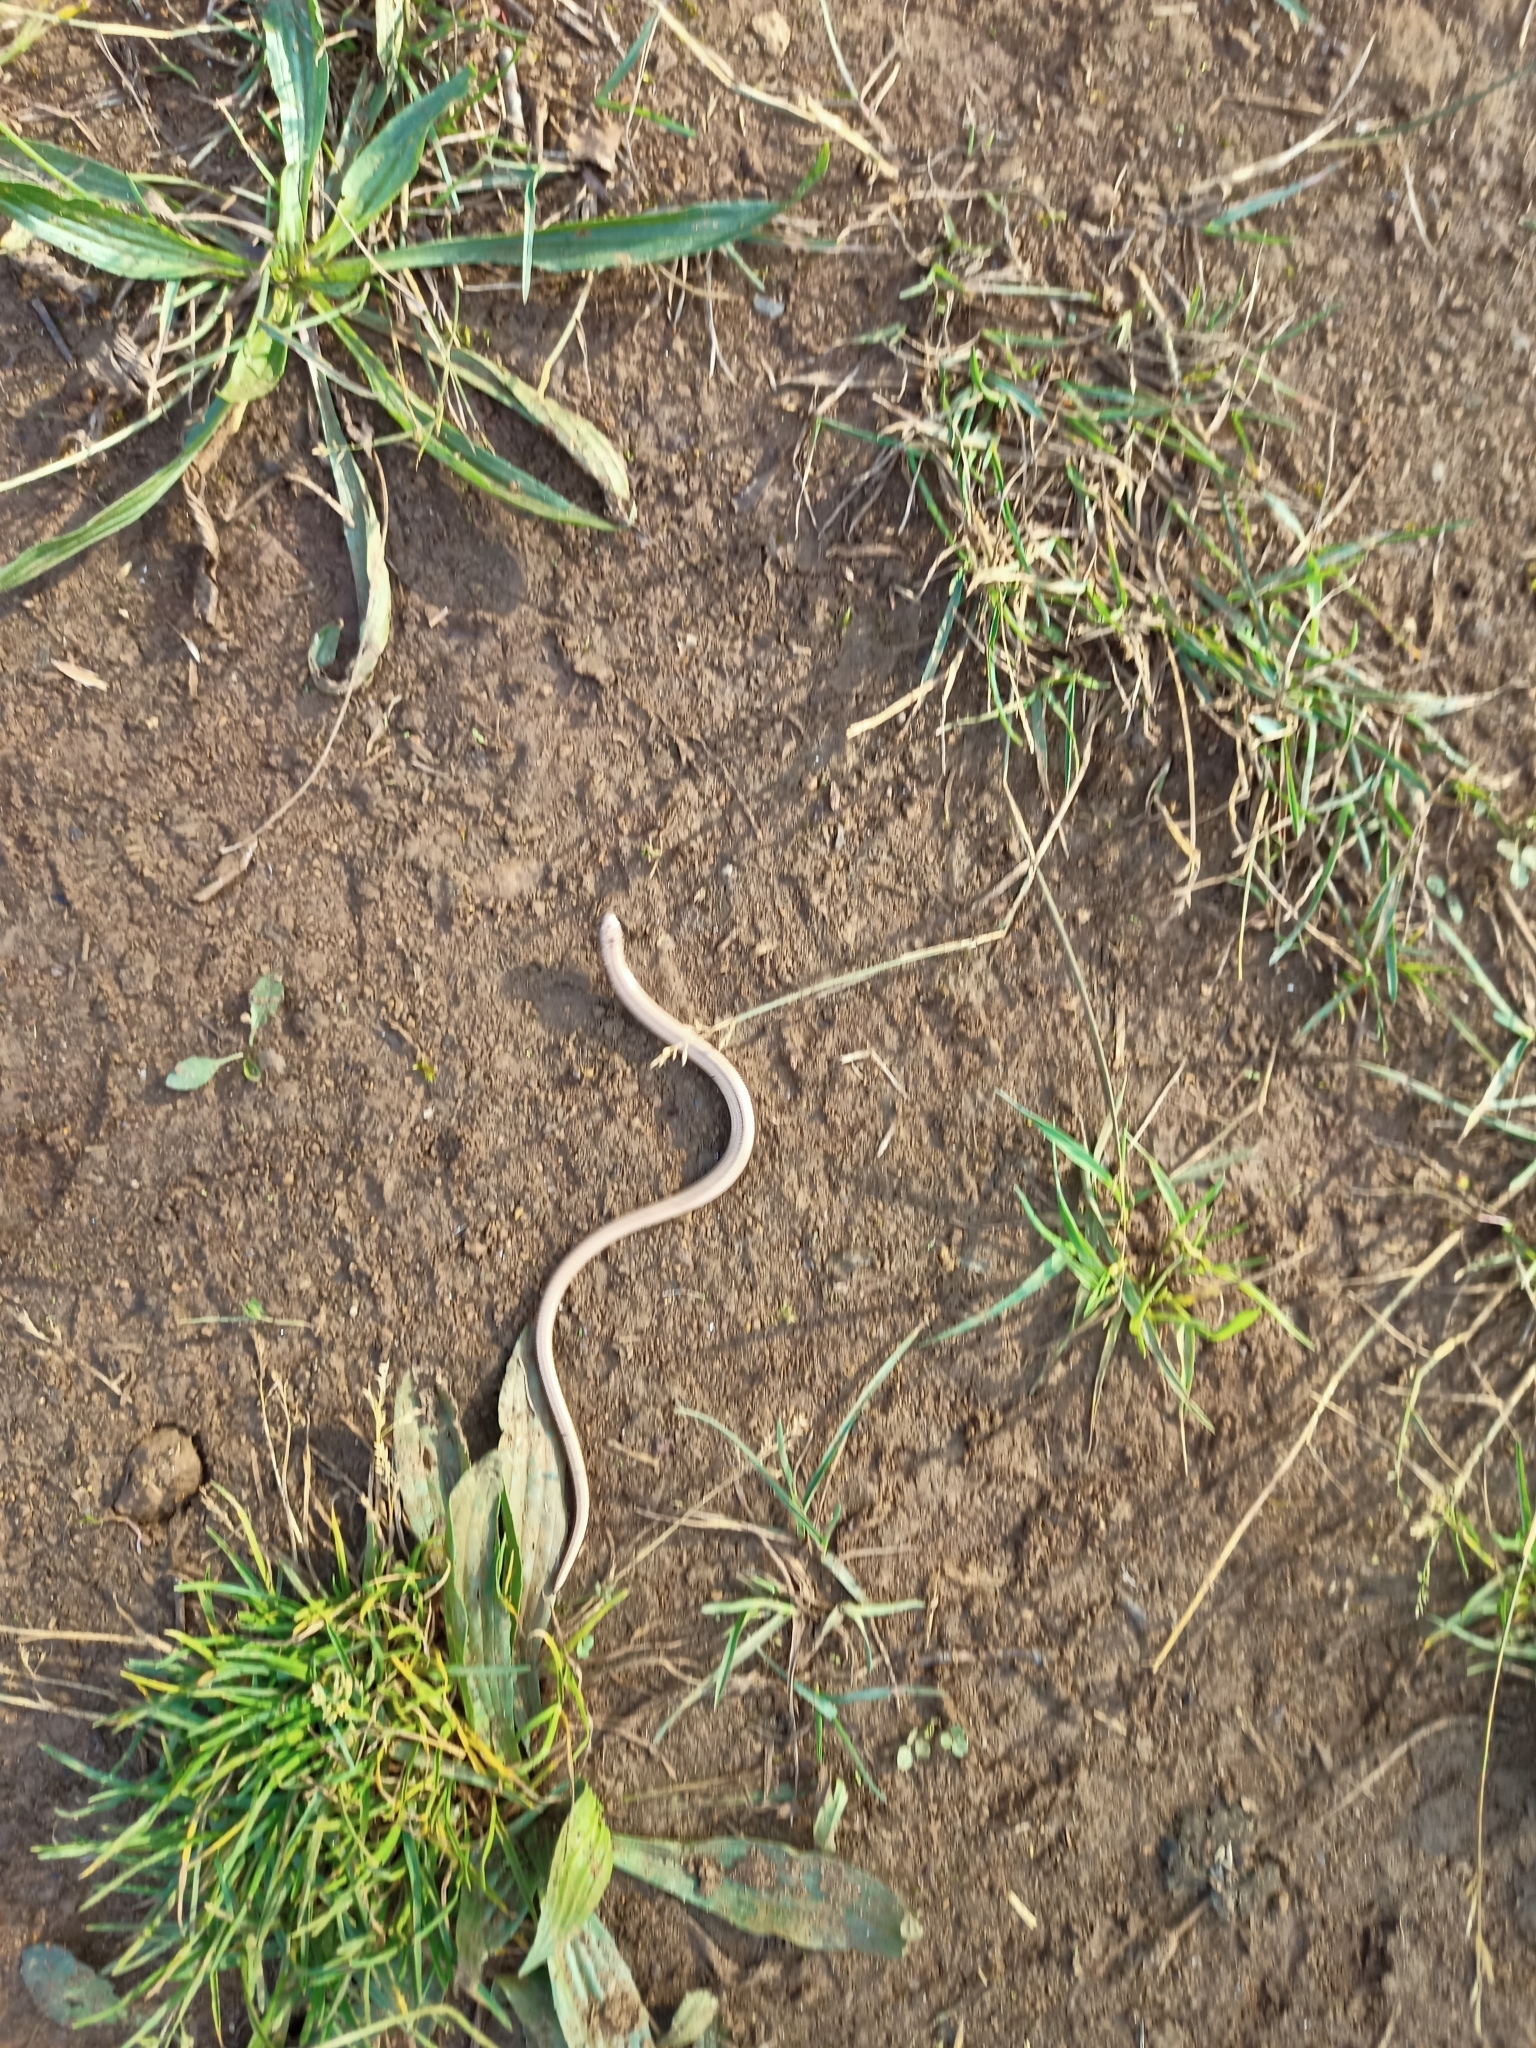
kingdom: Animalia
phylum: Chordata
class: Squamata
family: Anguidae
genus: Anguis
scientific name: Anguis fragilis
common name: Slow worm
